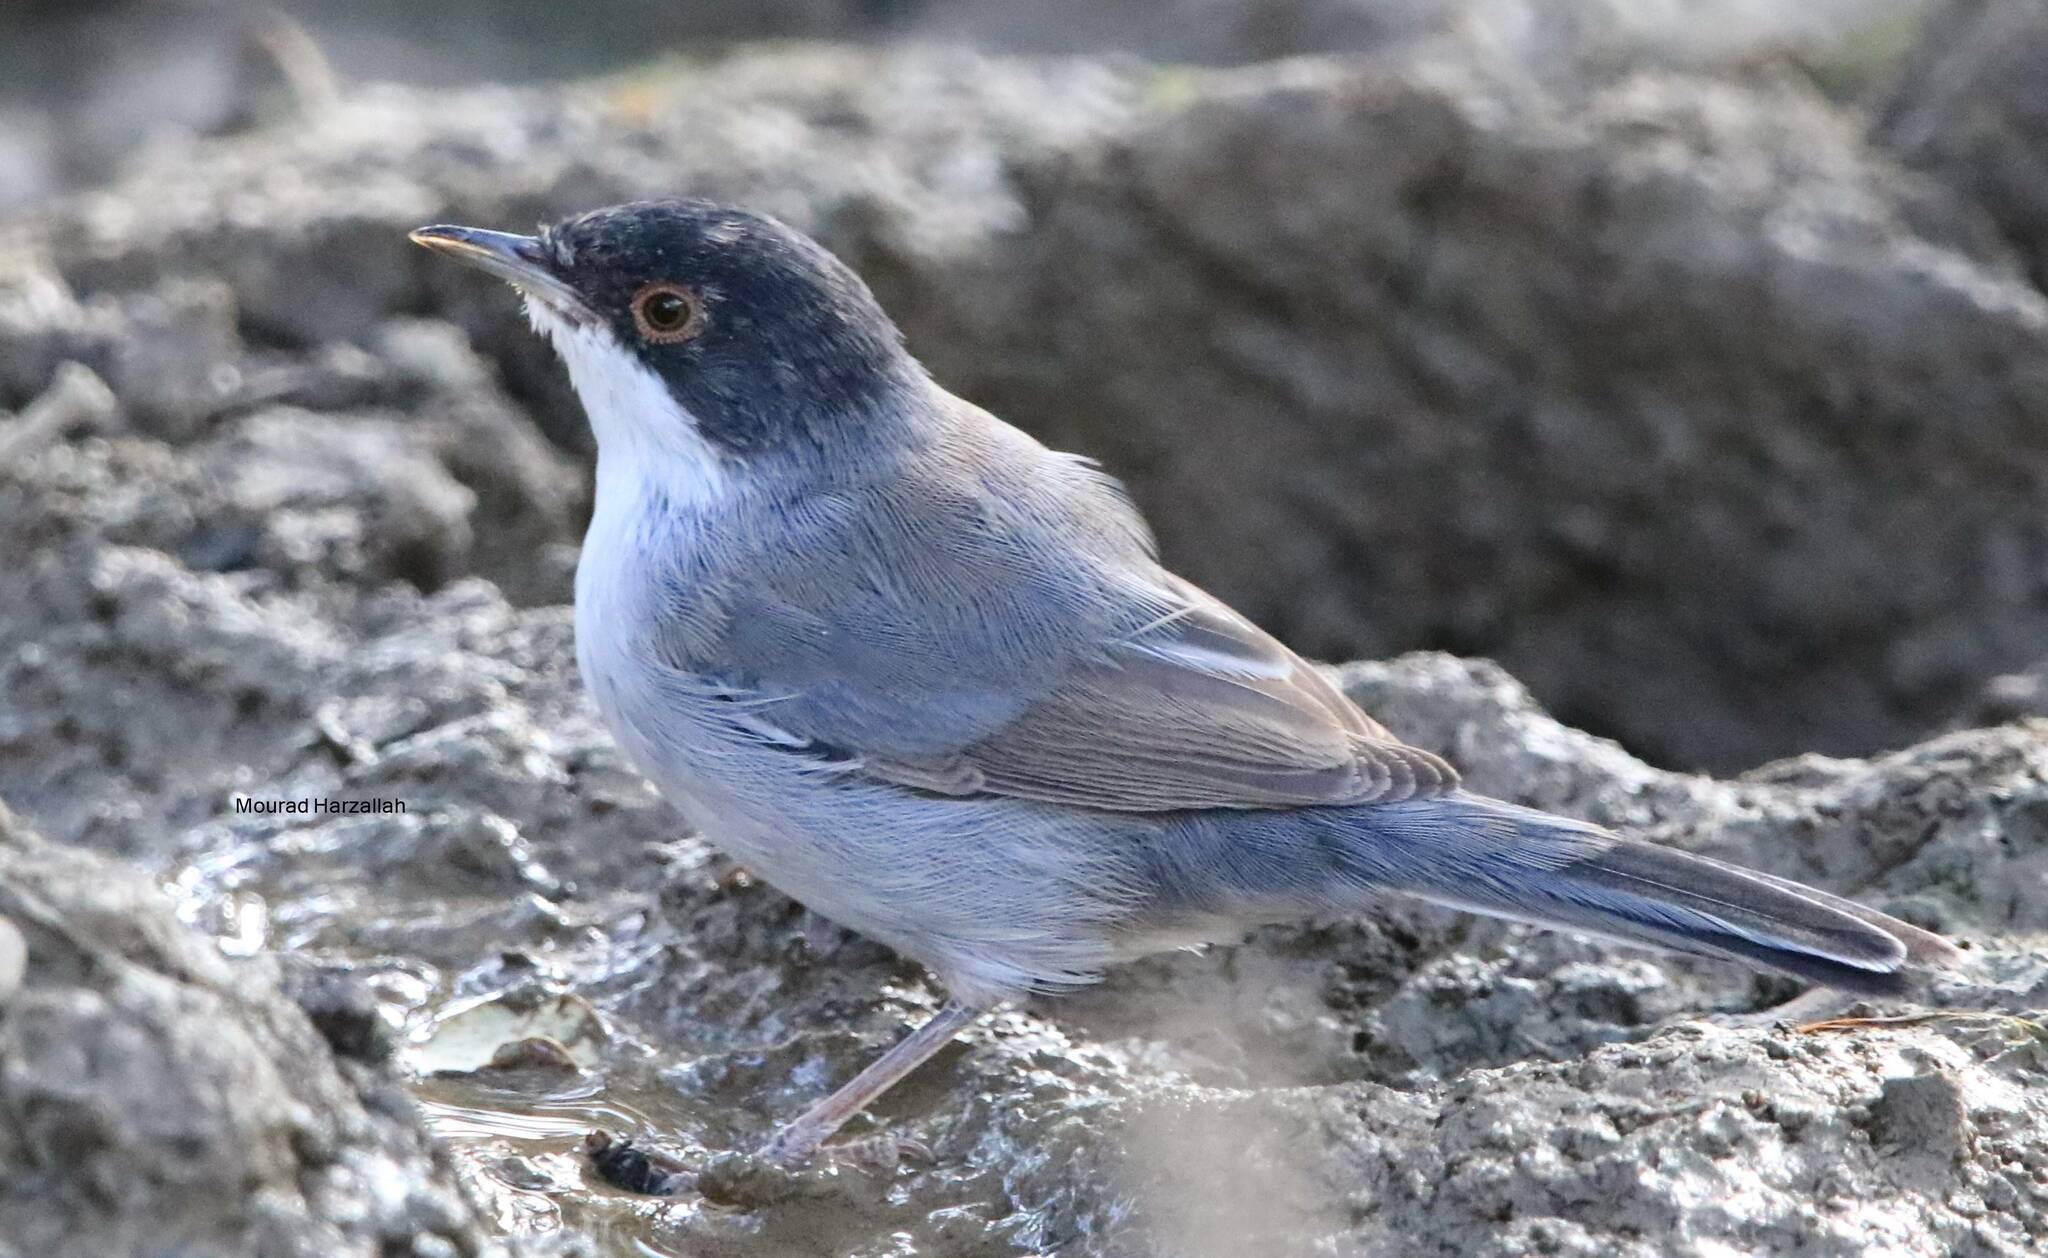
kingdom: Animalia
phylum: Chordata
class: Aves
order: Passeriformes
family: Sylviidae
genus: Curruca
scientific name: Curruca melanocephala
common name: Sardinian warbler
